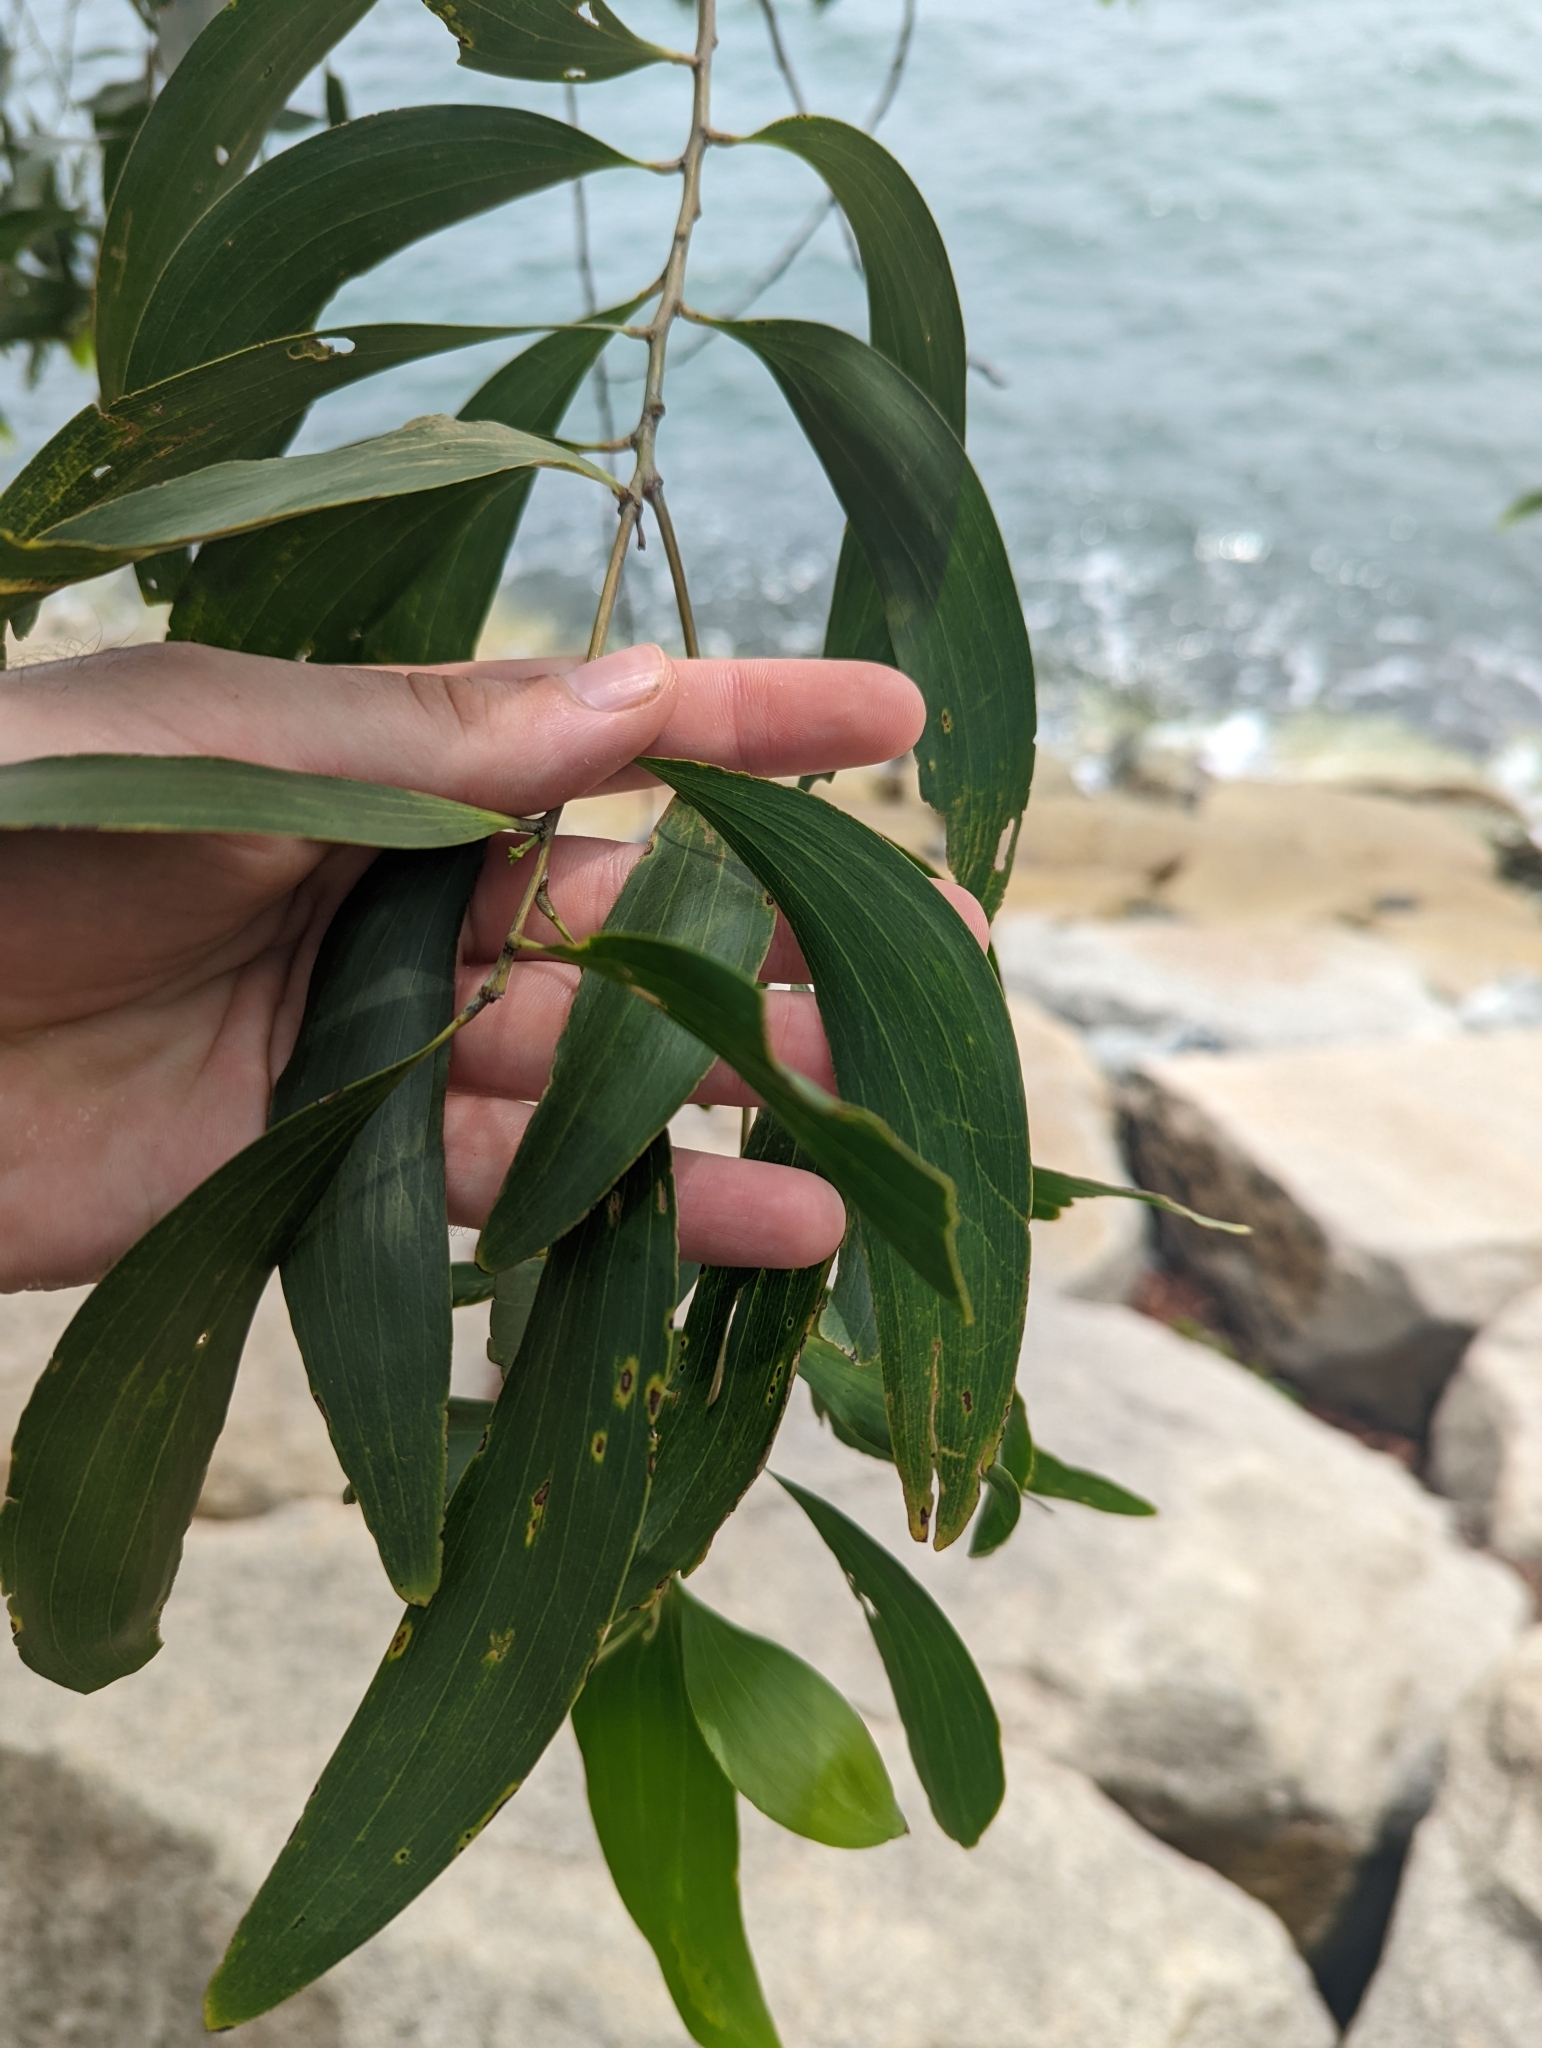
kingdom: Plantae
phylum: Tracheophyta
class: Magnoliopsida
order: Fabales
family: Fabaceae
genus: Acacia
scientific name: Acacia auriculiformis
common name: Earleaf acacia
